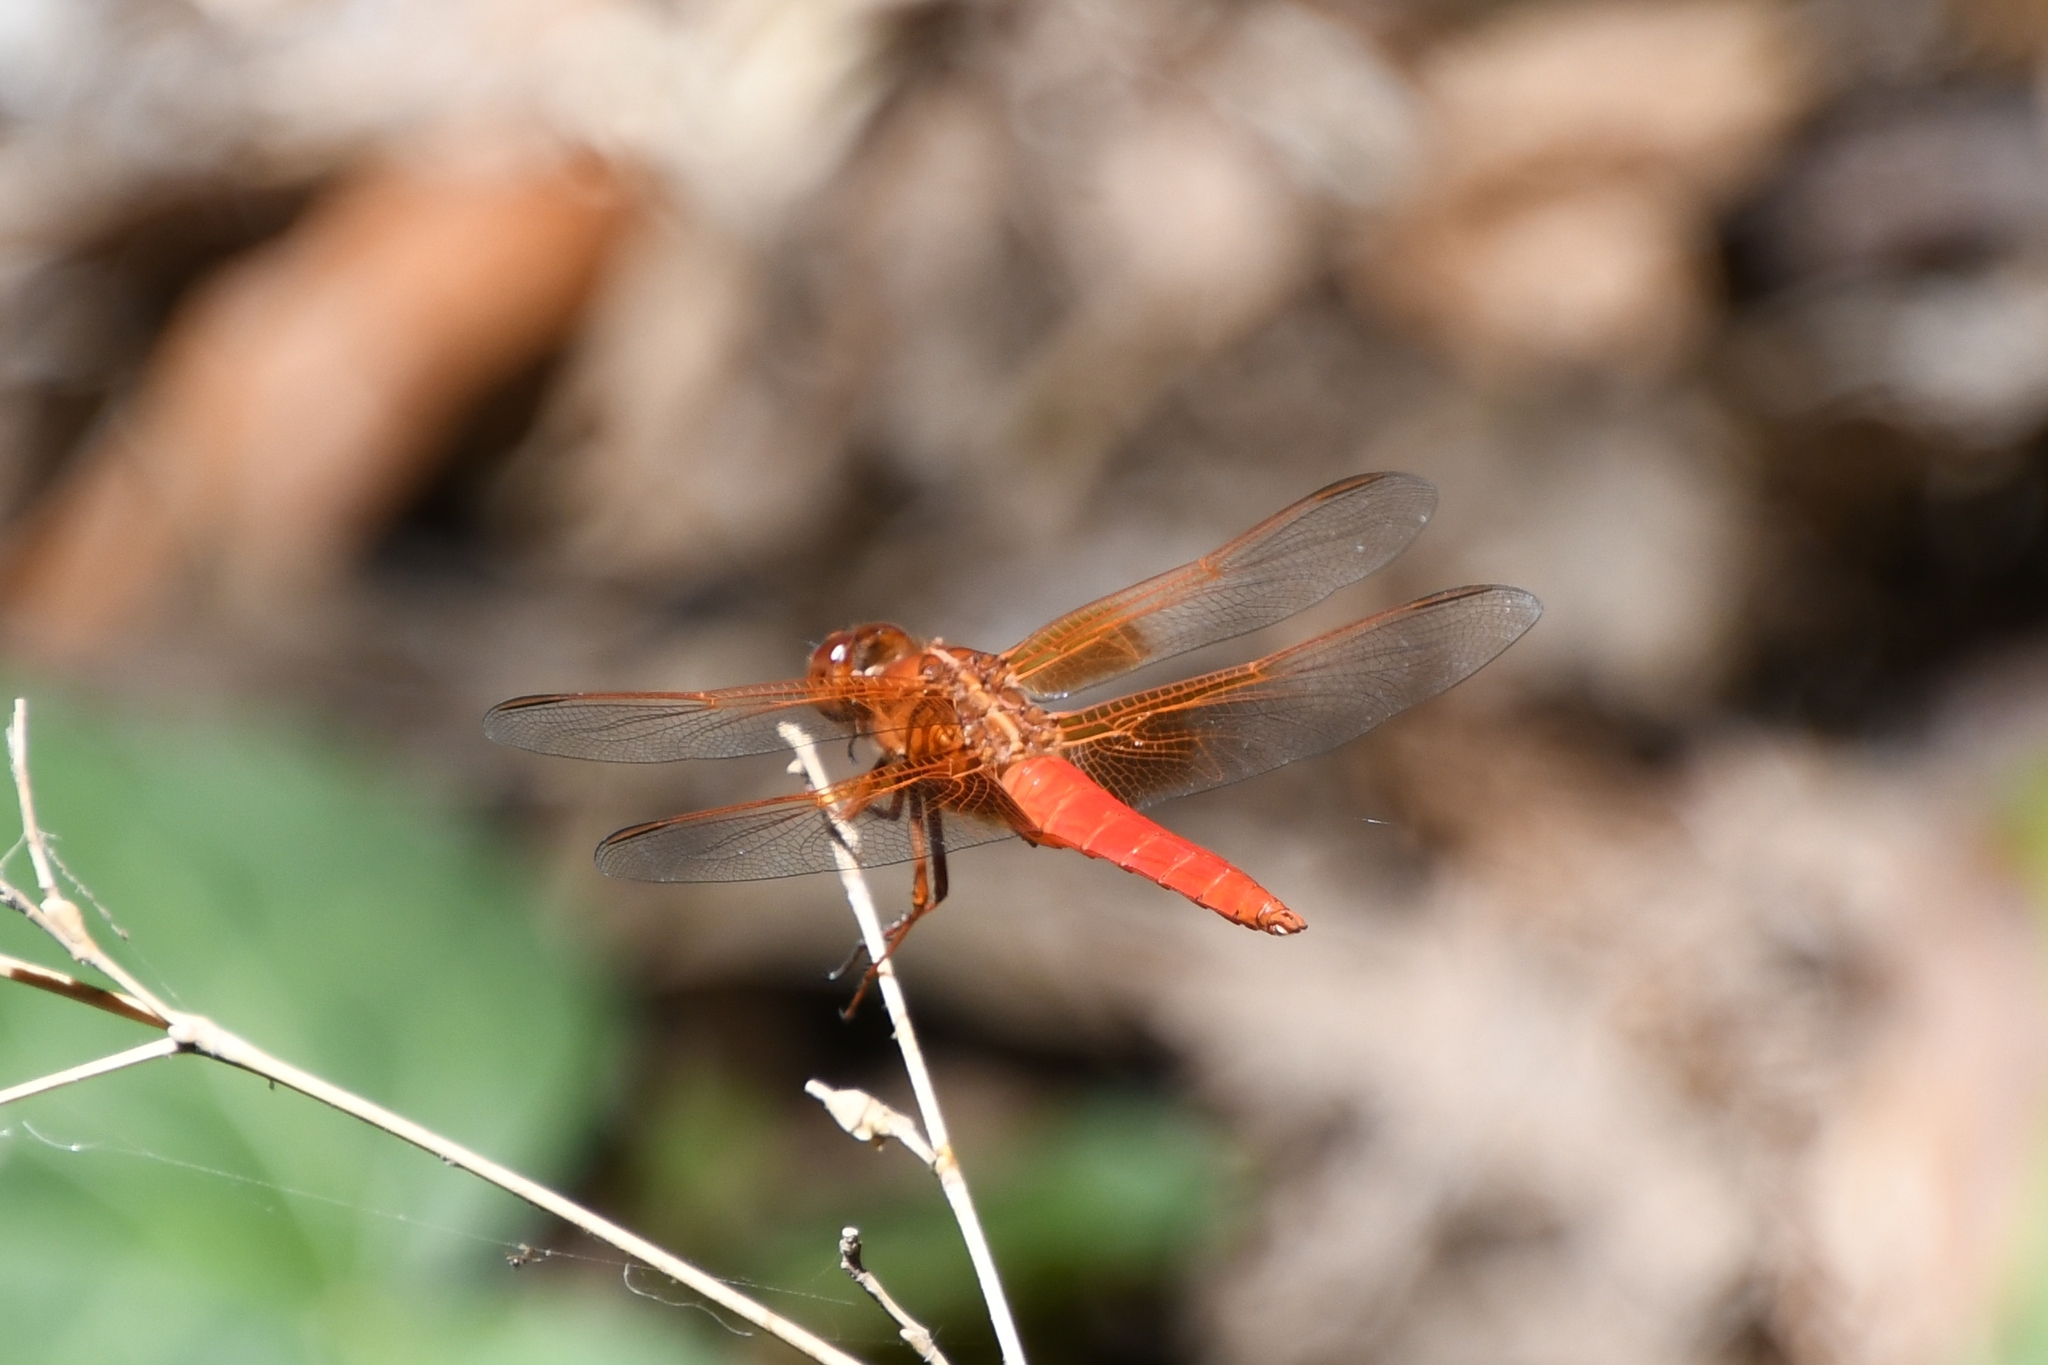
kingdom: Animalia
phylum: Arthropoda
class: Insecta
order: Odonata
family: Libellulidae
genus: Libellula
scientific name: Libellula croceipennis
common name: Neon skimmer
